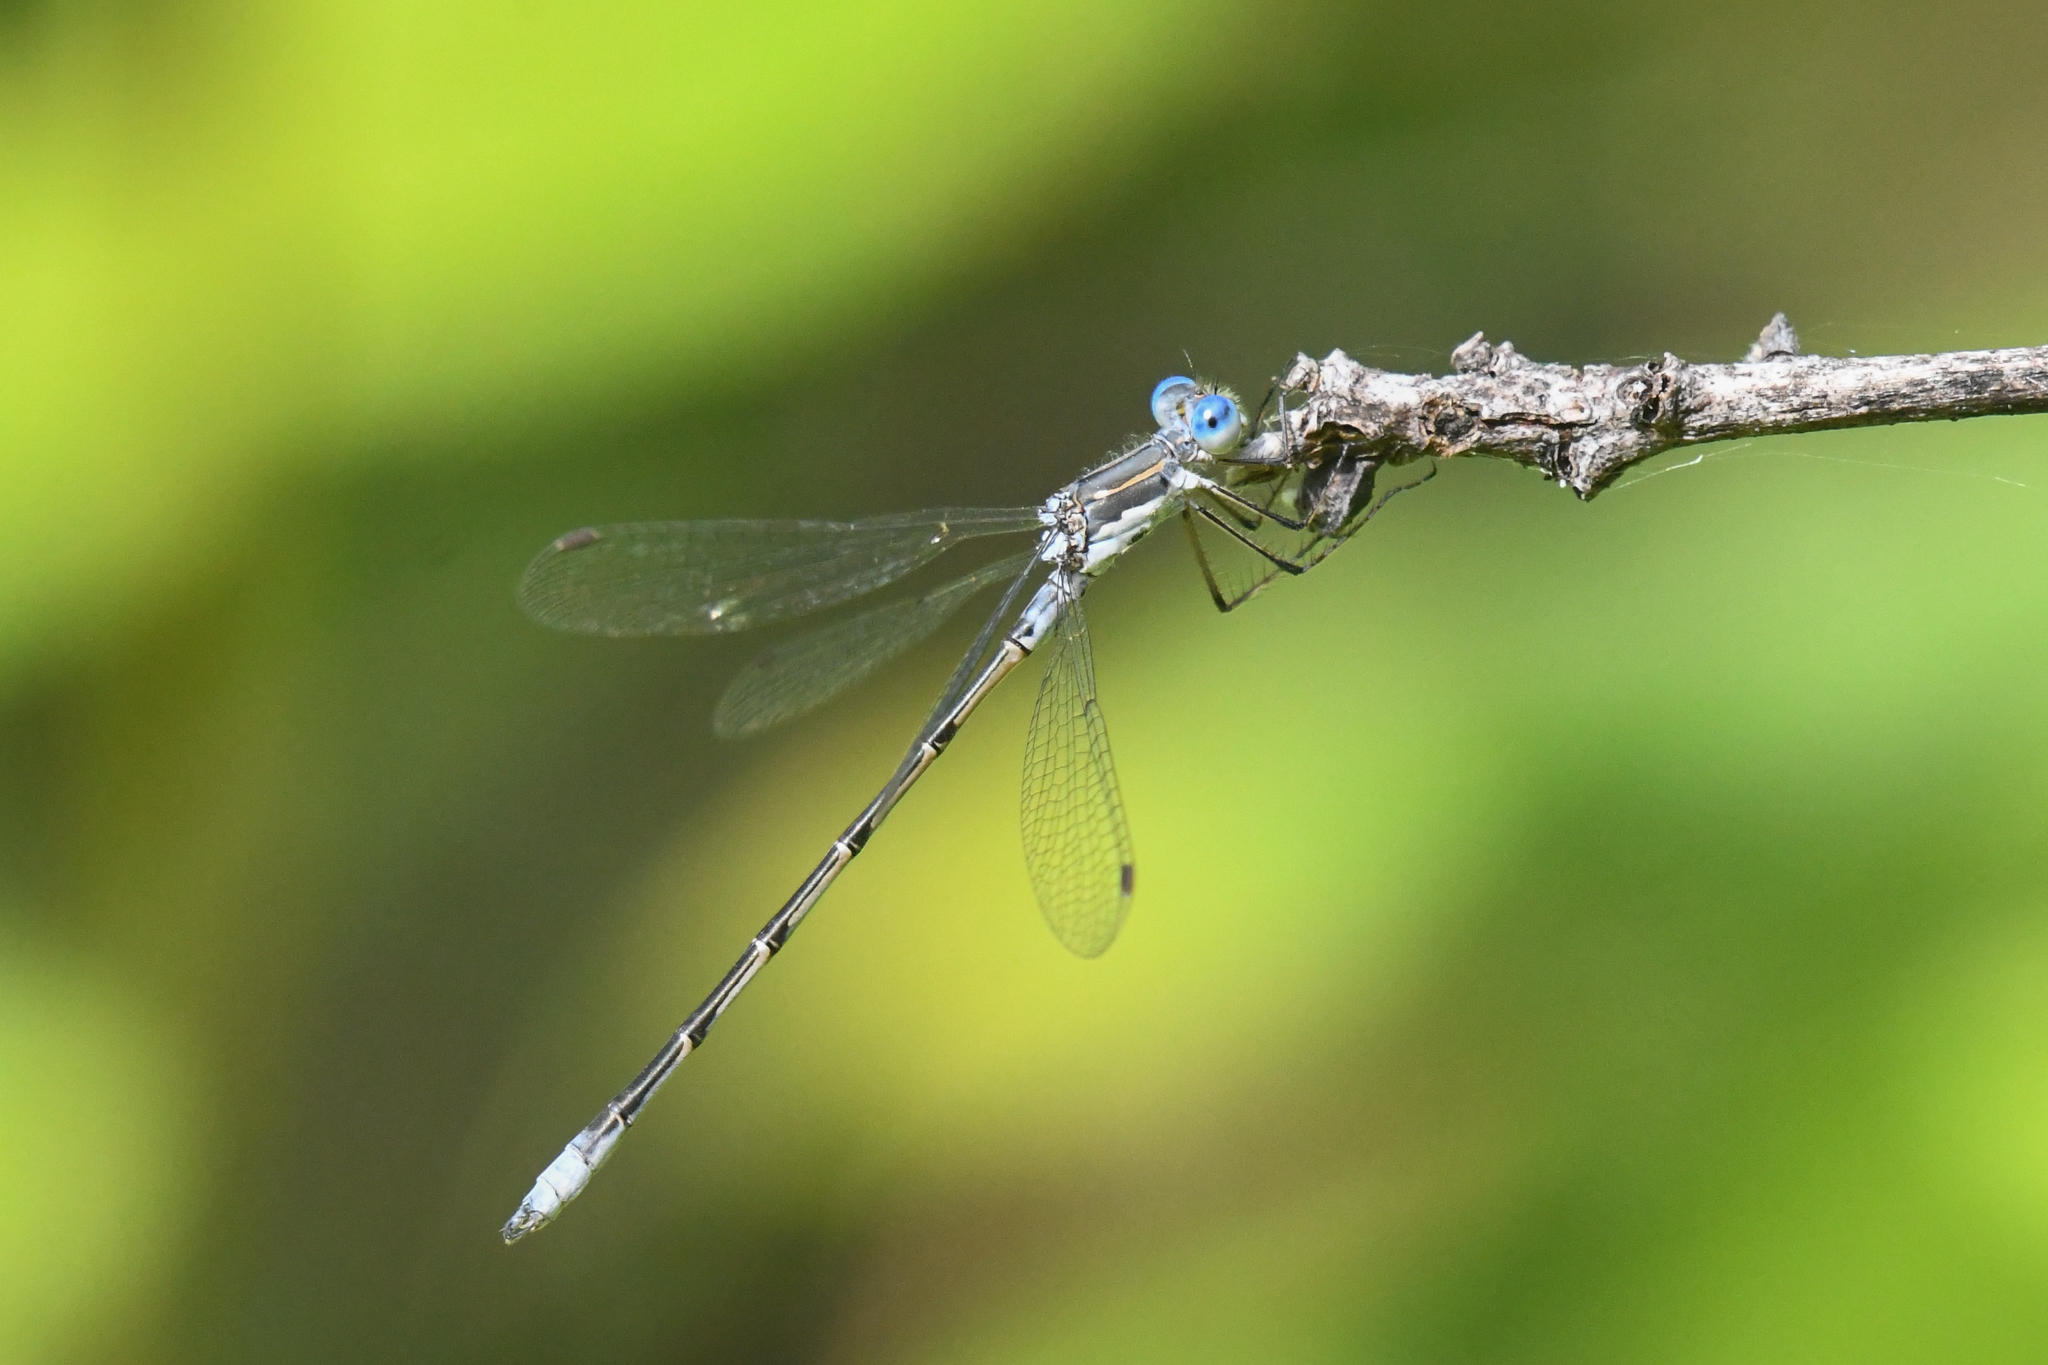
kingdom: Animalia
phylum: Arthropoda
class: Insecta
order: Odonata
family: Lestidae
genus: Lestes
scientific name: Lestes congener
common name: Spotted spreadwing
